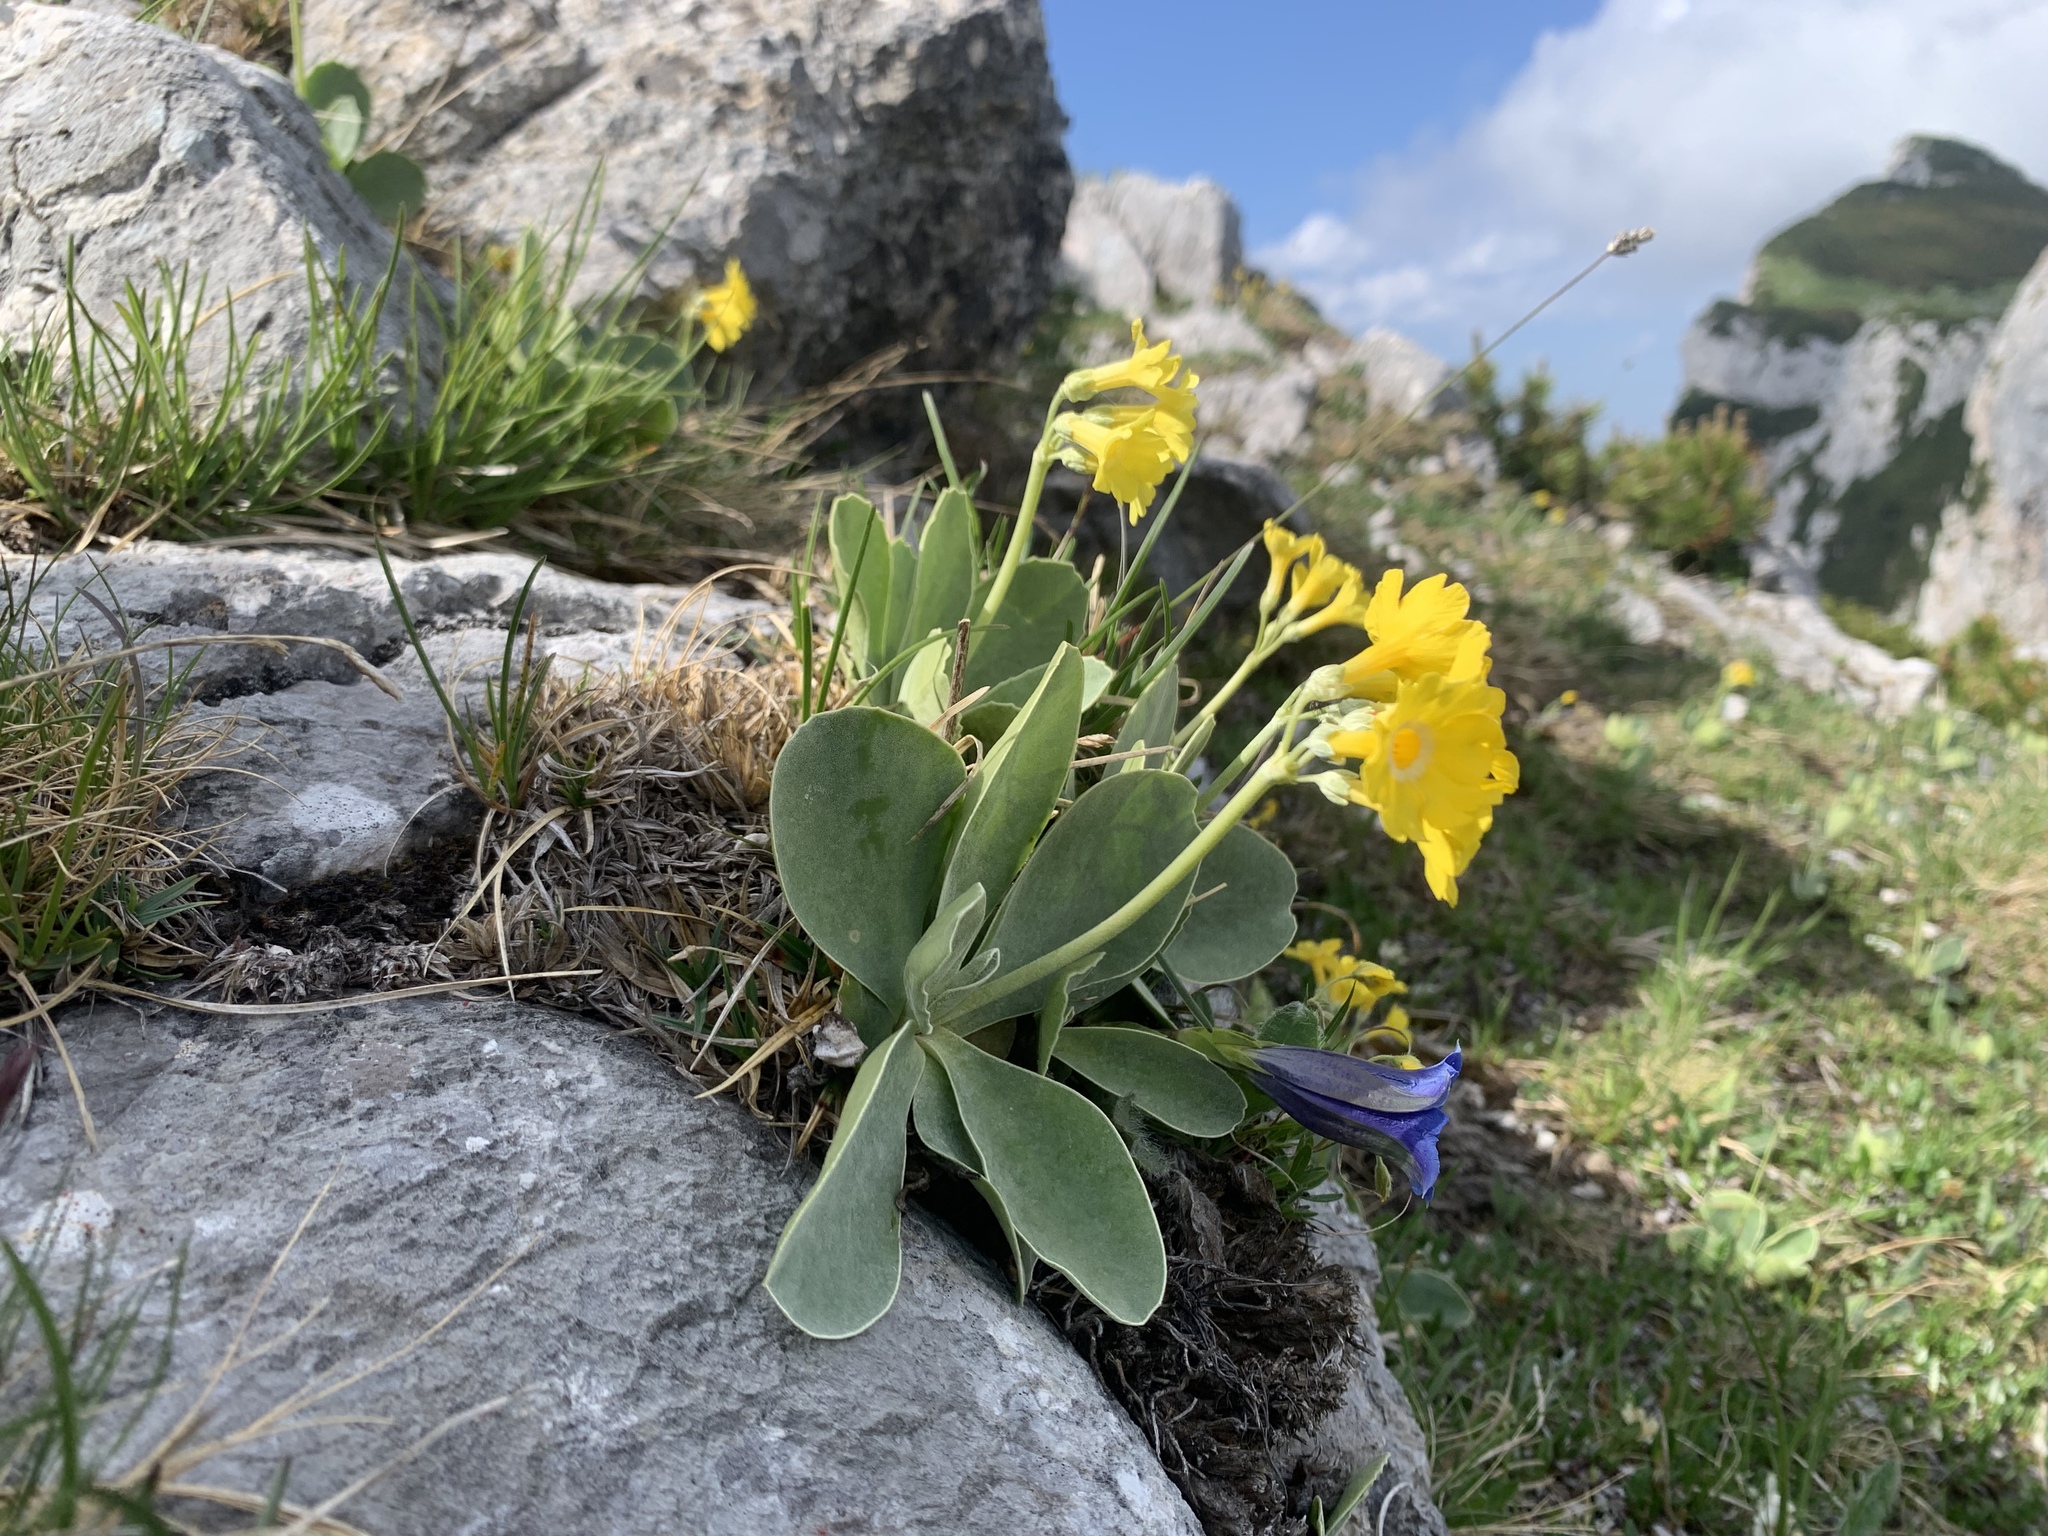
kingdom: Plantae
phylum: Tracheophyta
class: Magnoliopsida
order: Ericales
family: Primulaceae
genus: Primula
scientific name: Primula auricula
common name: Auricula
